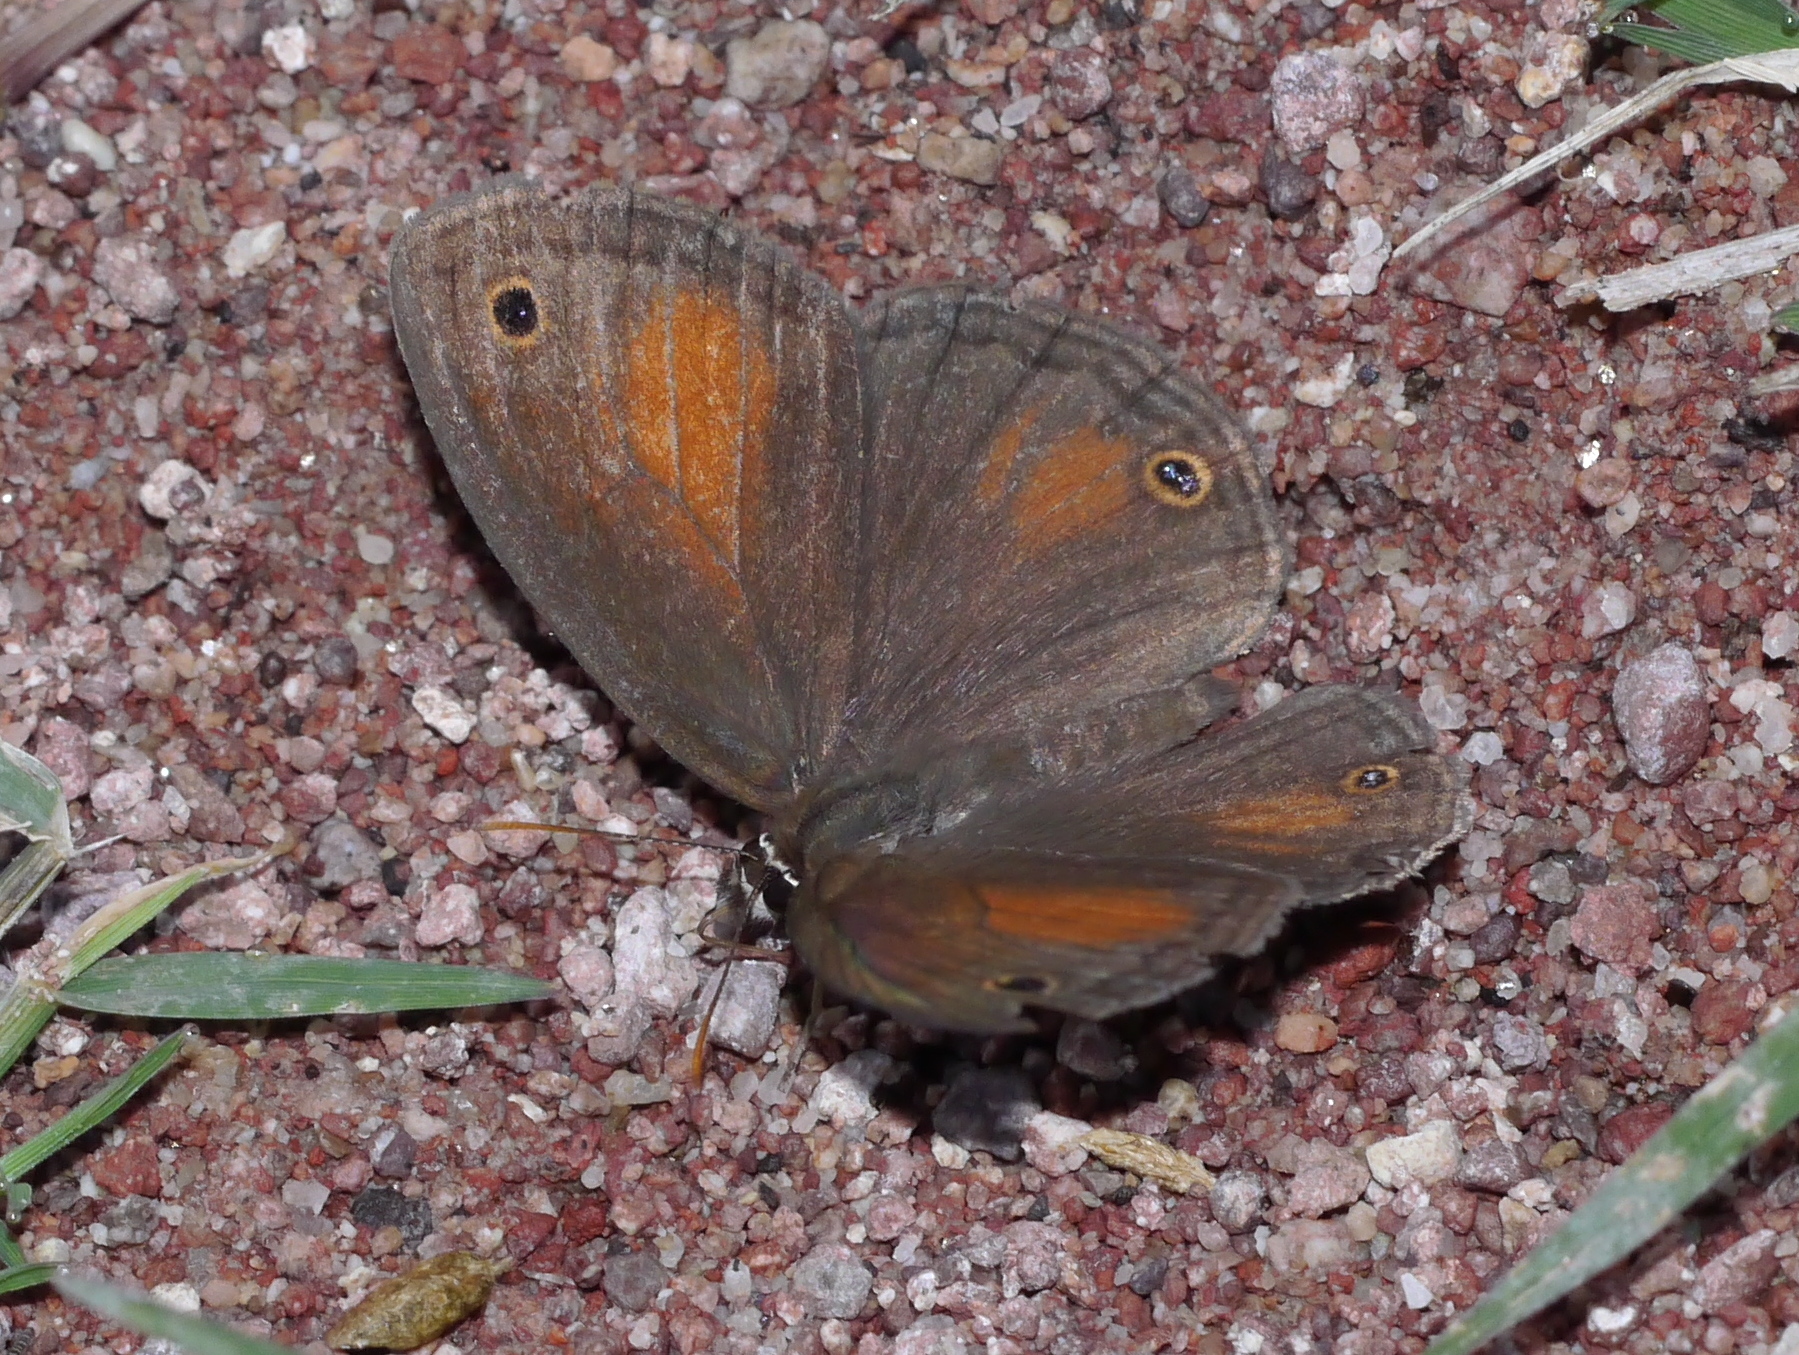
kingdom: Animalia
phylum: Arthropoda
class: Insecta
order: Lepidoptera
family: Nymphalidae
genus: Euptychia
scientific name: Euptychia
